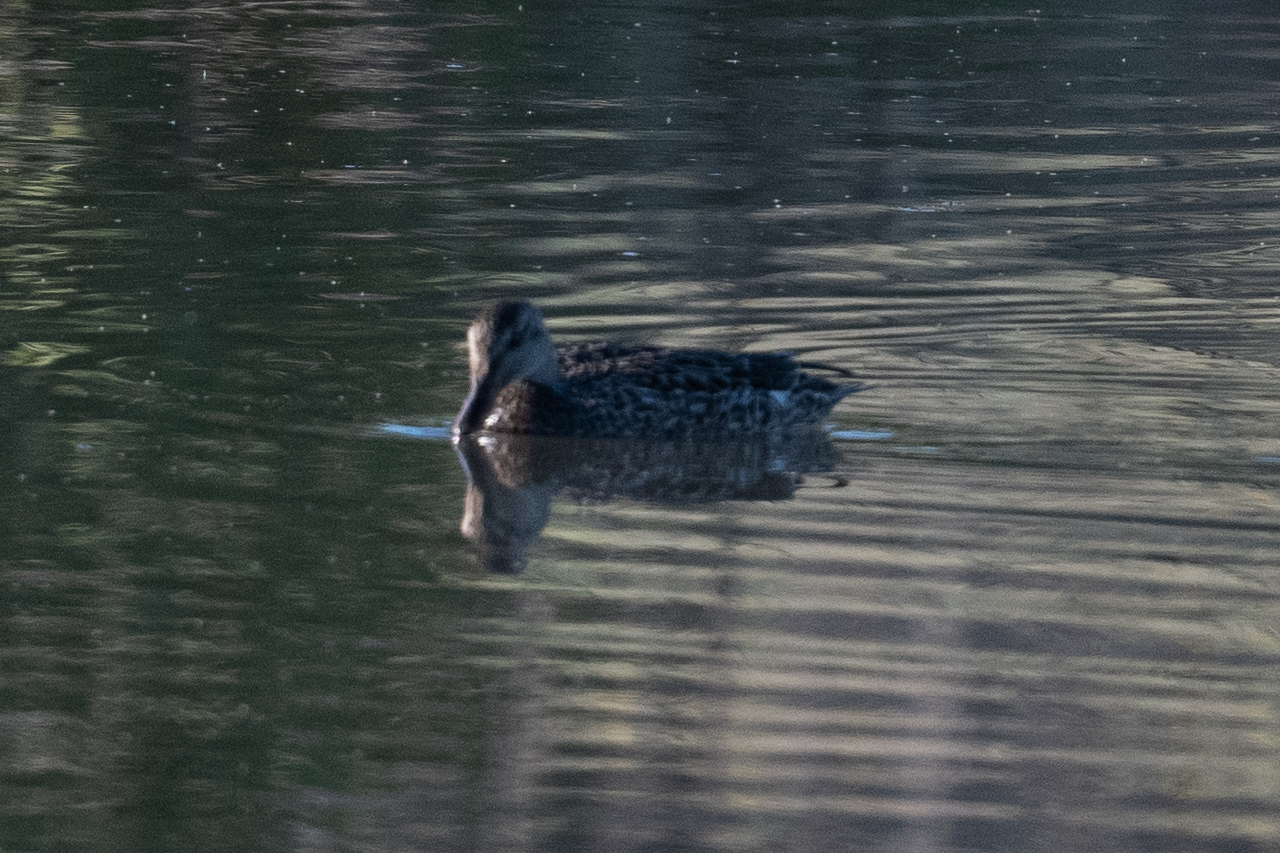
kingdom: Animalia
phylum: Chordata
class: Aves
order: Anseriformes
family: Anatidae
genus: Mareca
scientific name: Mareca strepera
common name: Gadwall
